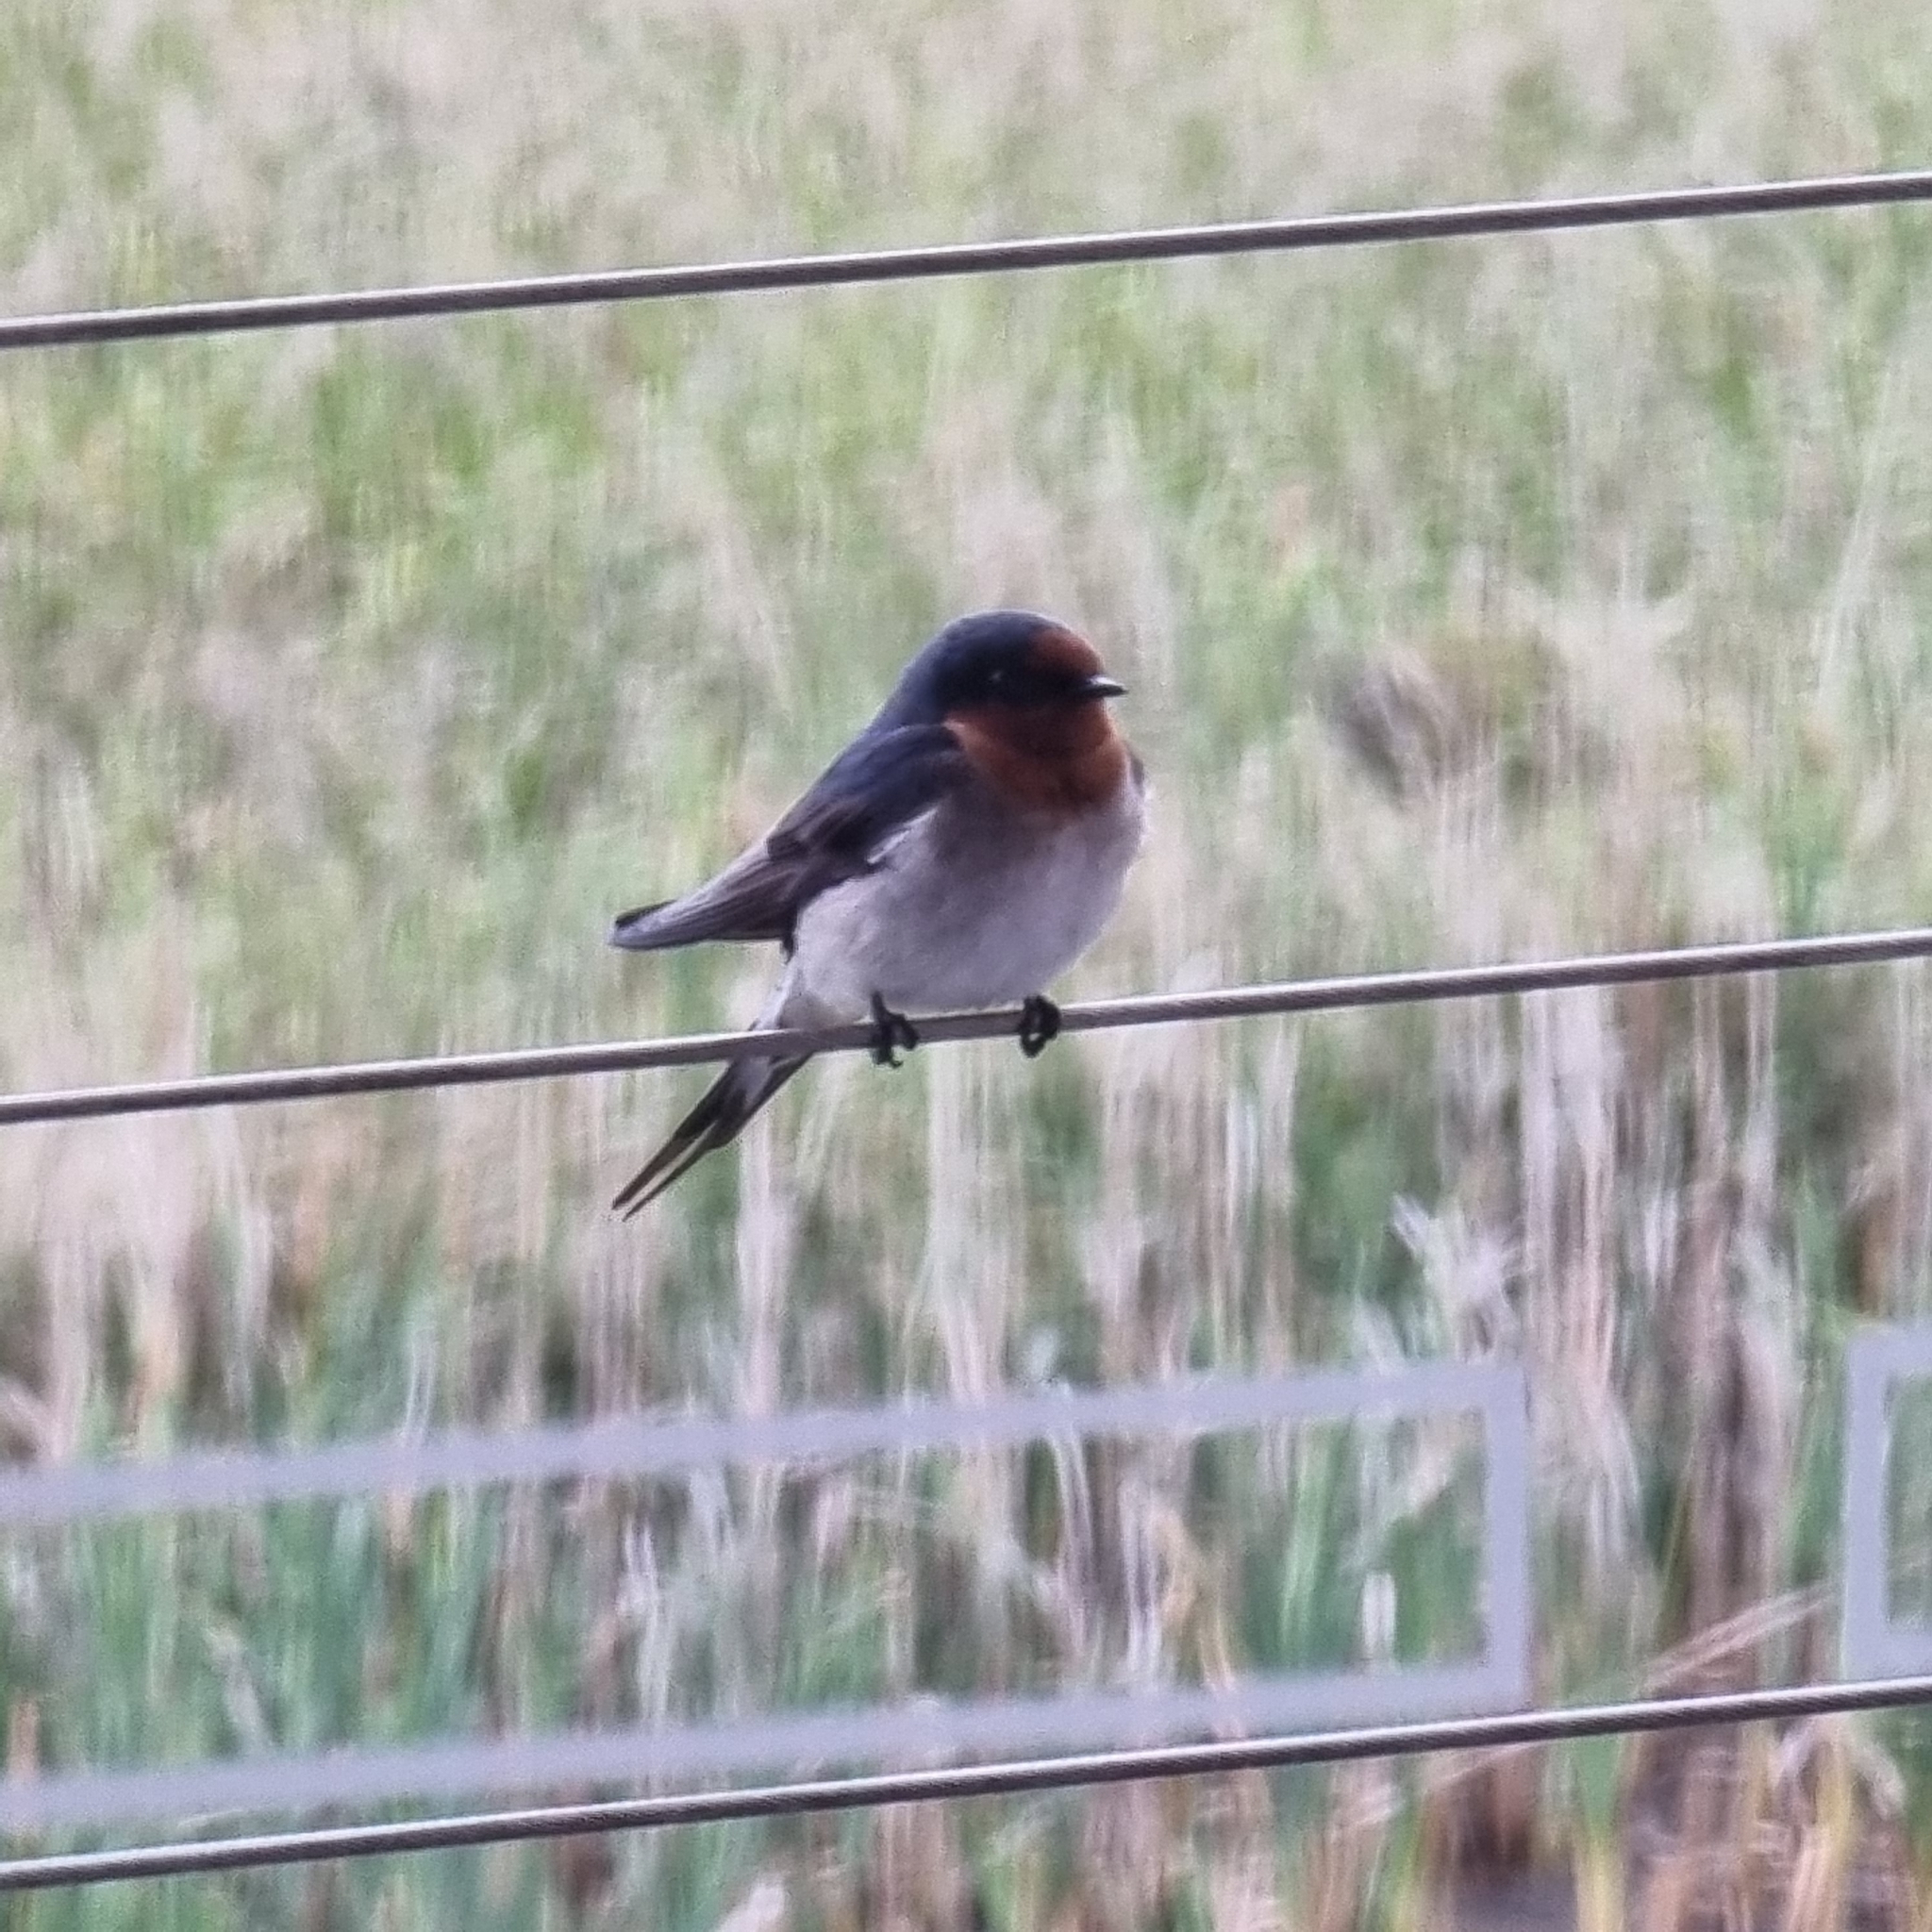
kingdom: Animalia
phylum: Chordata
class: Aves
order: Passeriformes
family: Hirundinidae
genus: Hirundo
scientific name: Hirundo neoxena
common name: Welcome swallow
